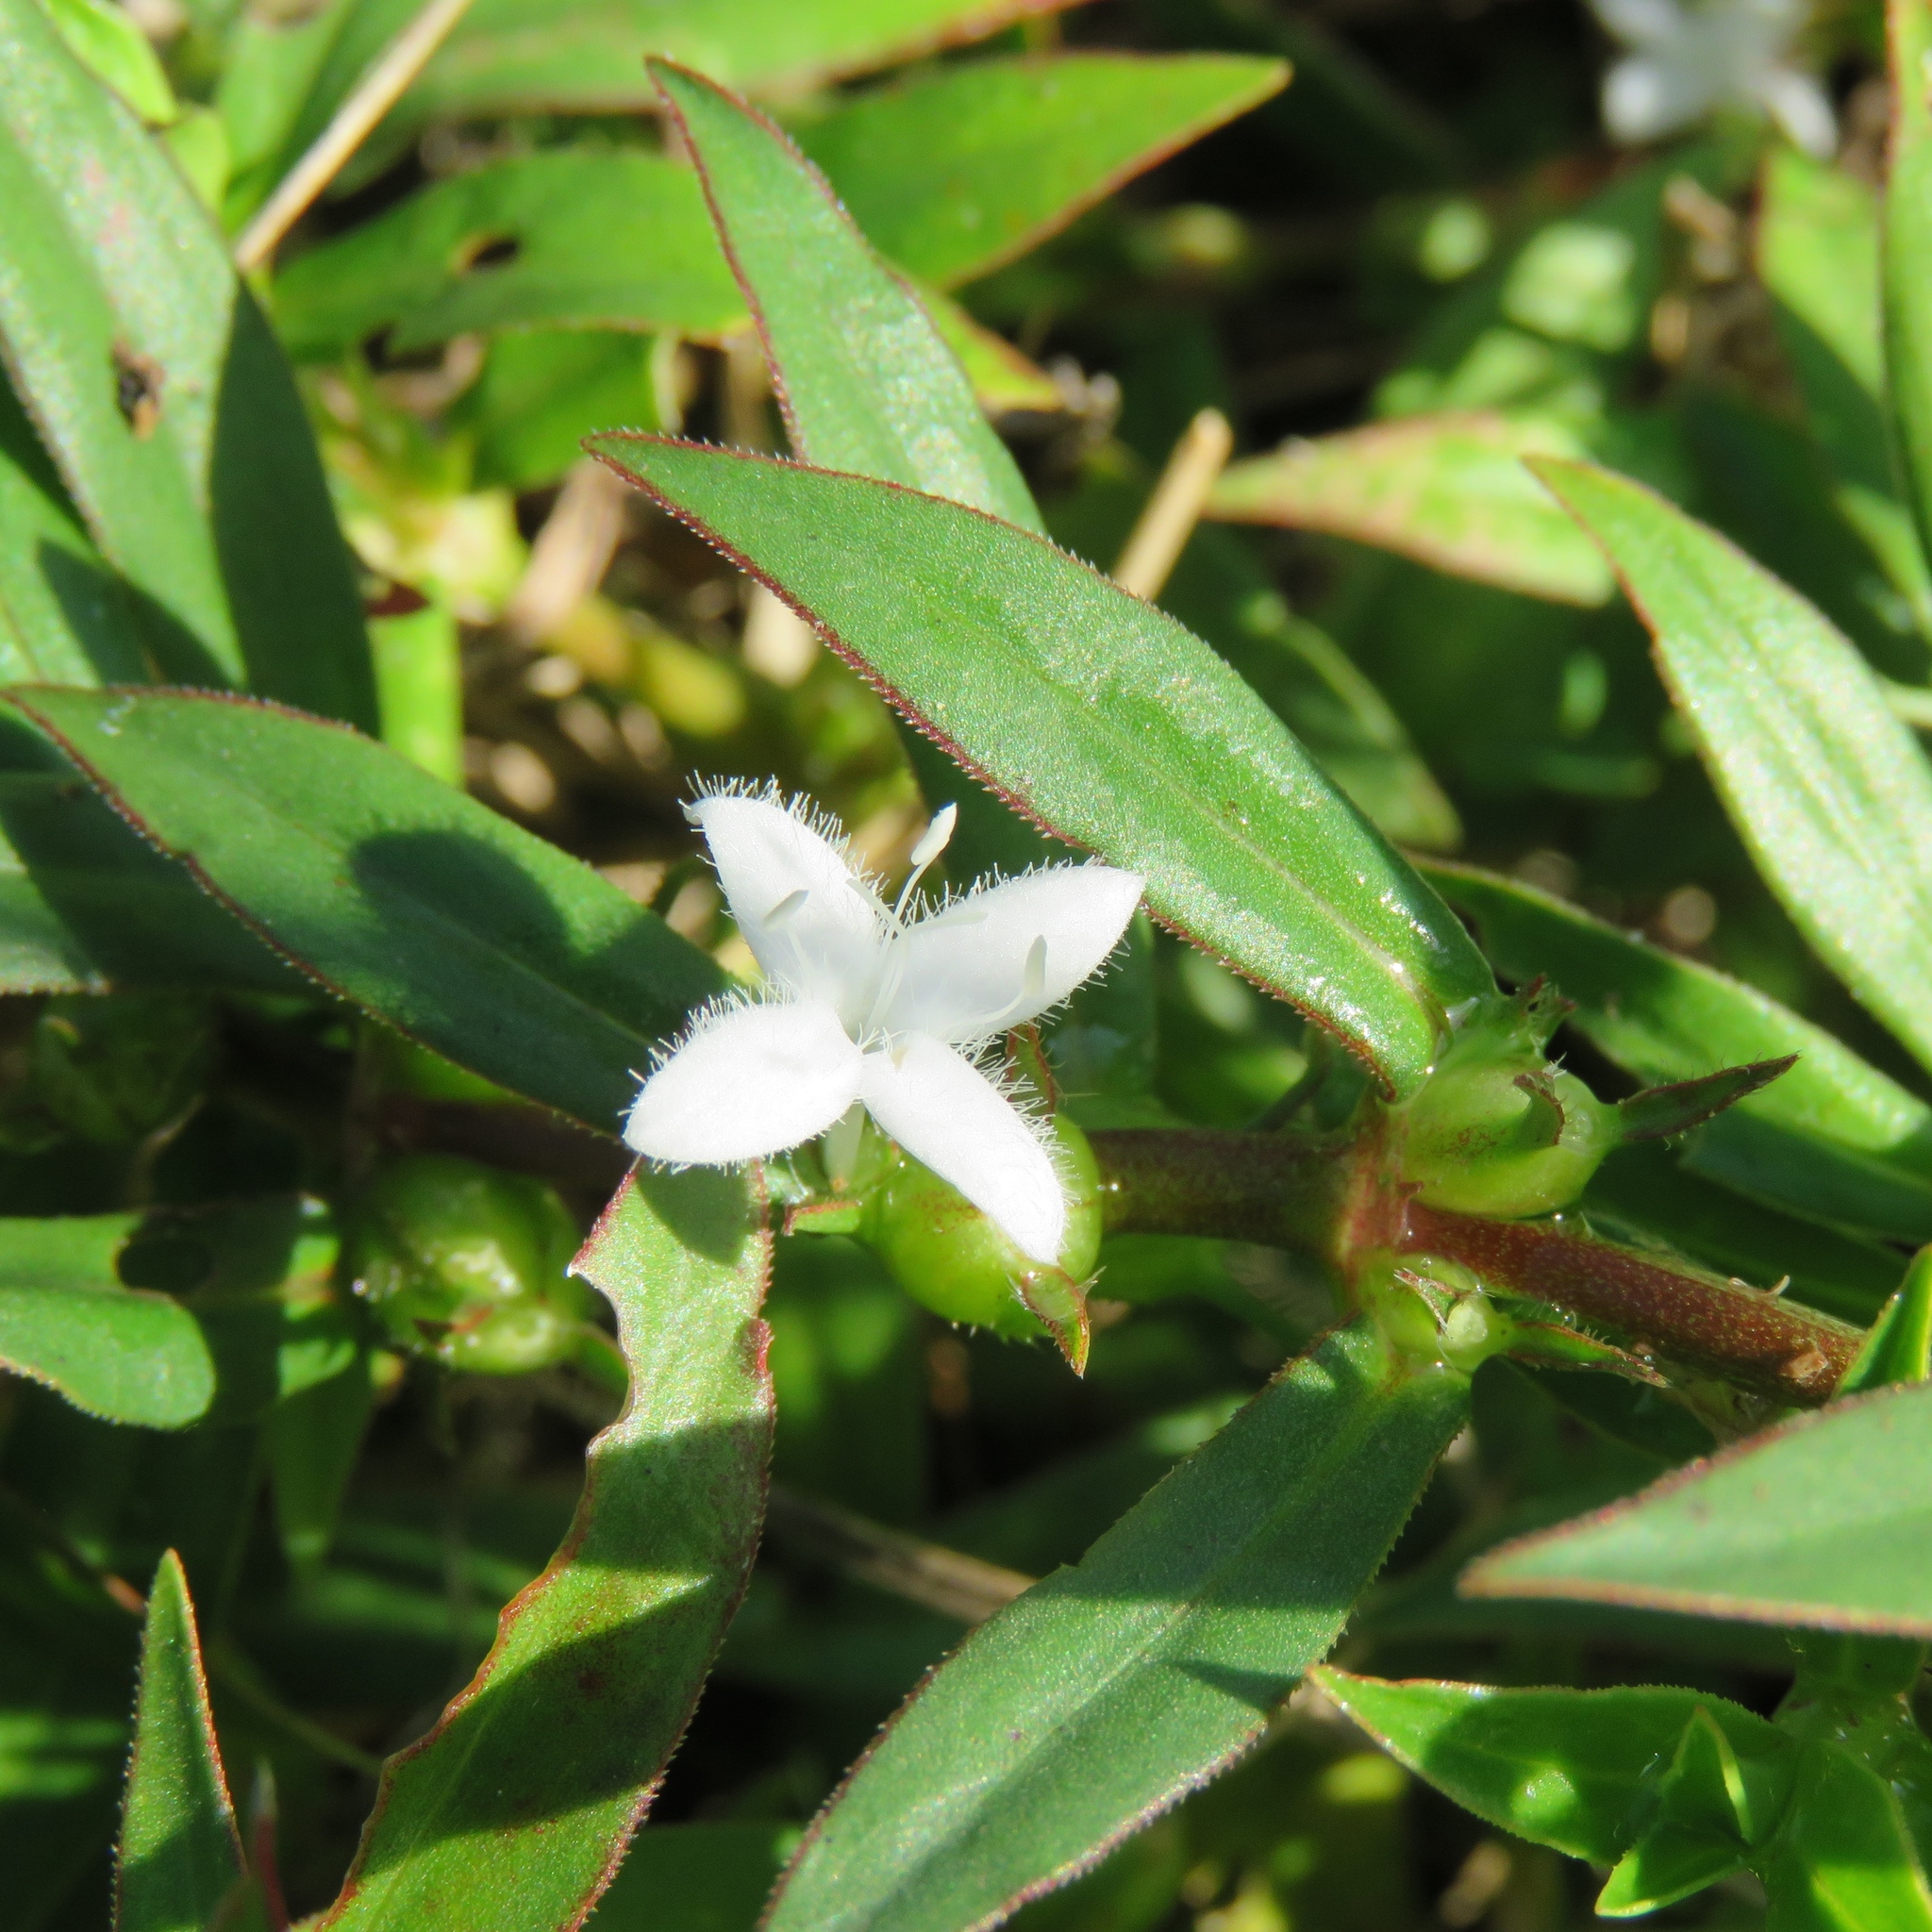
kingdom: Plantae
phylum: Tracheophyta
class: Magnoliopsida
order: Gentianales
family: Rubiaceae
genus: Diodia
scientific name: Diodia virginiana
